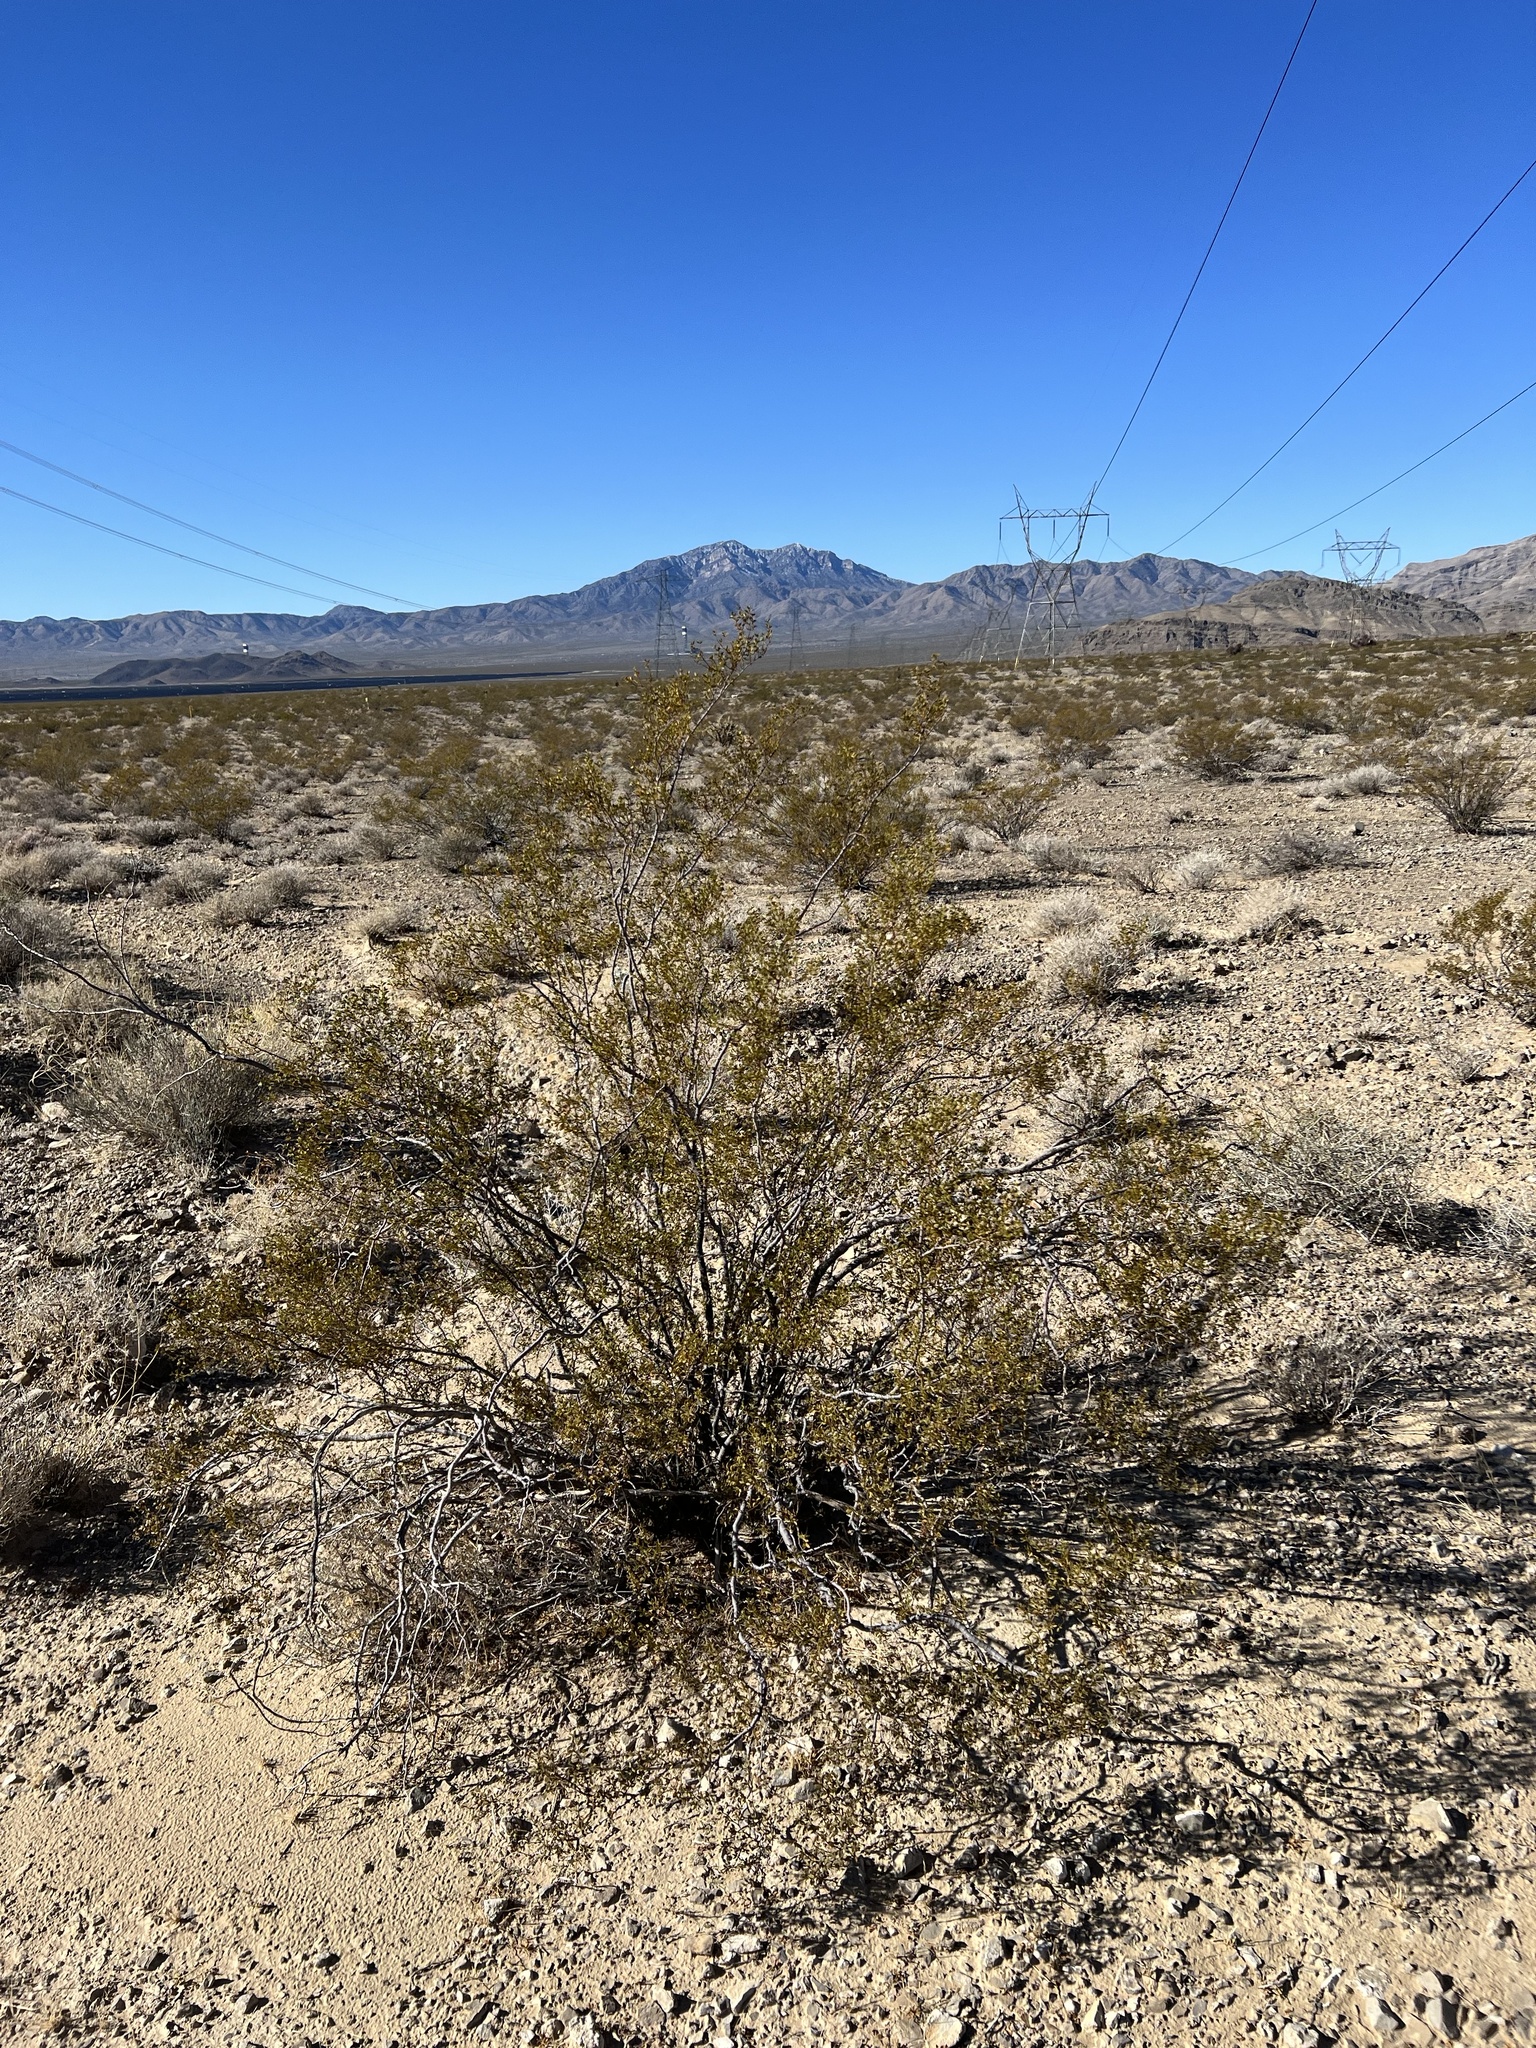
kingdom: Plantae
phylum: Tracheophyta
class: Magnoliopsida
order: Zygophyllales
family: Zygophyllaceae
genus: Larrea
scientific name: Larrea tridentata
